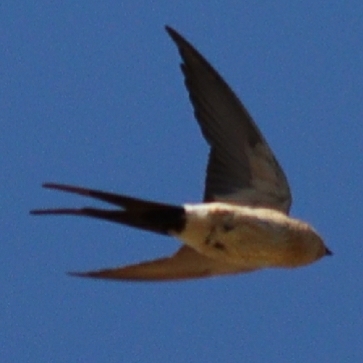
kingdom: Animalia
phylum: Chordata
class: Aves
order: Passeriformes
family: Hirundinidae
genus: Cecropis
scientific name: Cecropis daurica
